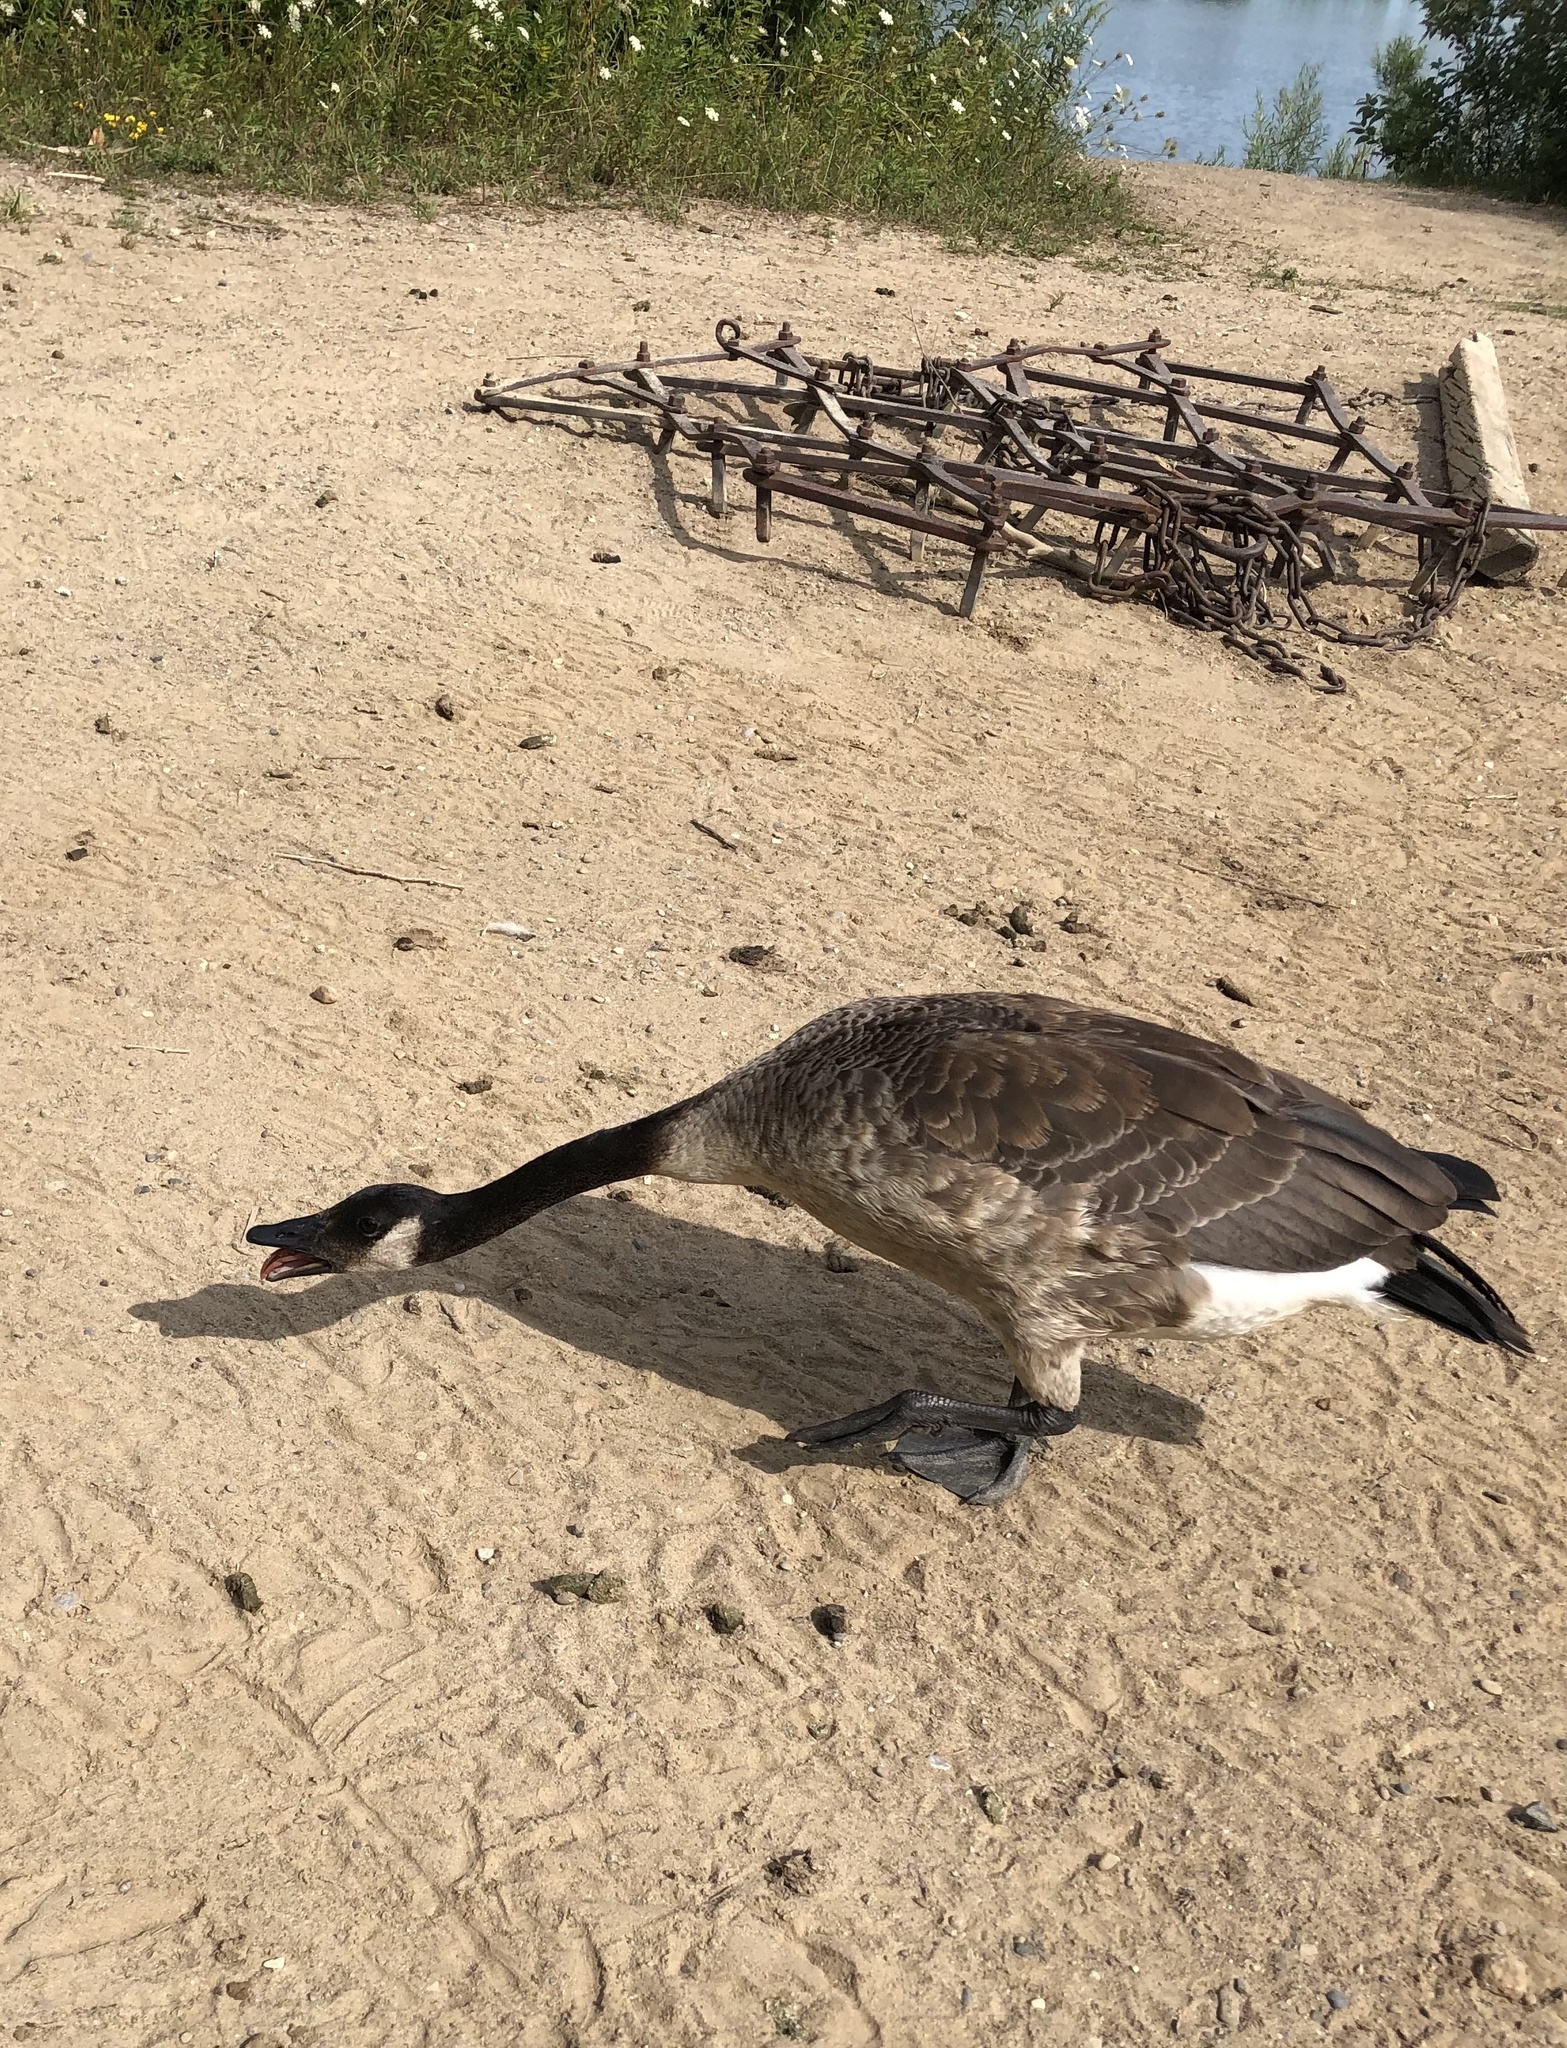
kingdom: Animalia
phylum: Chordata
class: Aves
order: Anseriformes
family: Anatidae
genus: Branta
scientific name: Branta canadensis
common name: Canada goose
